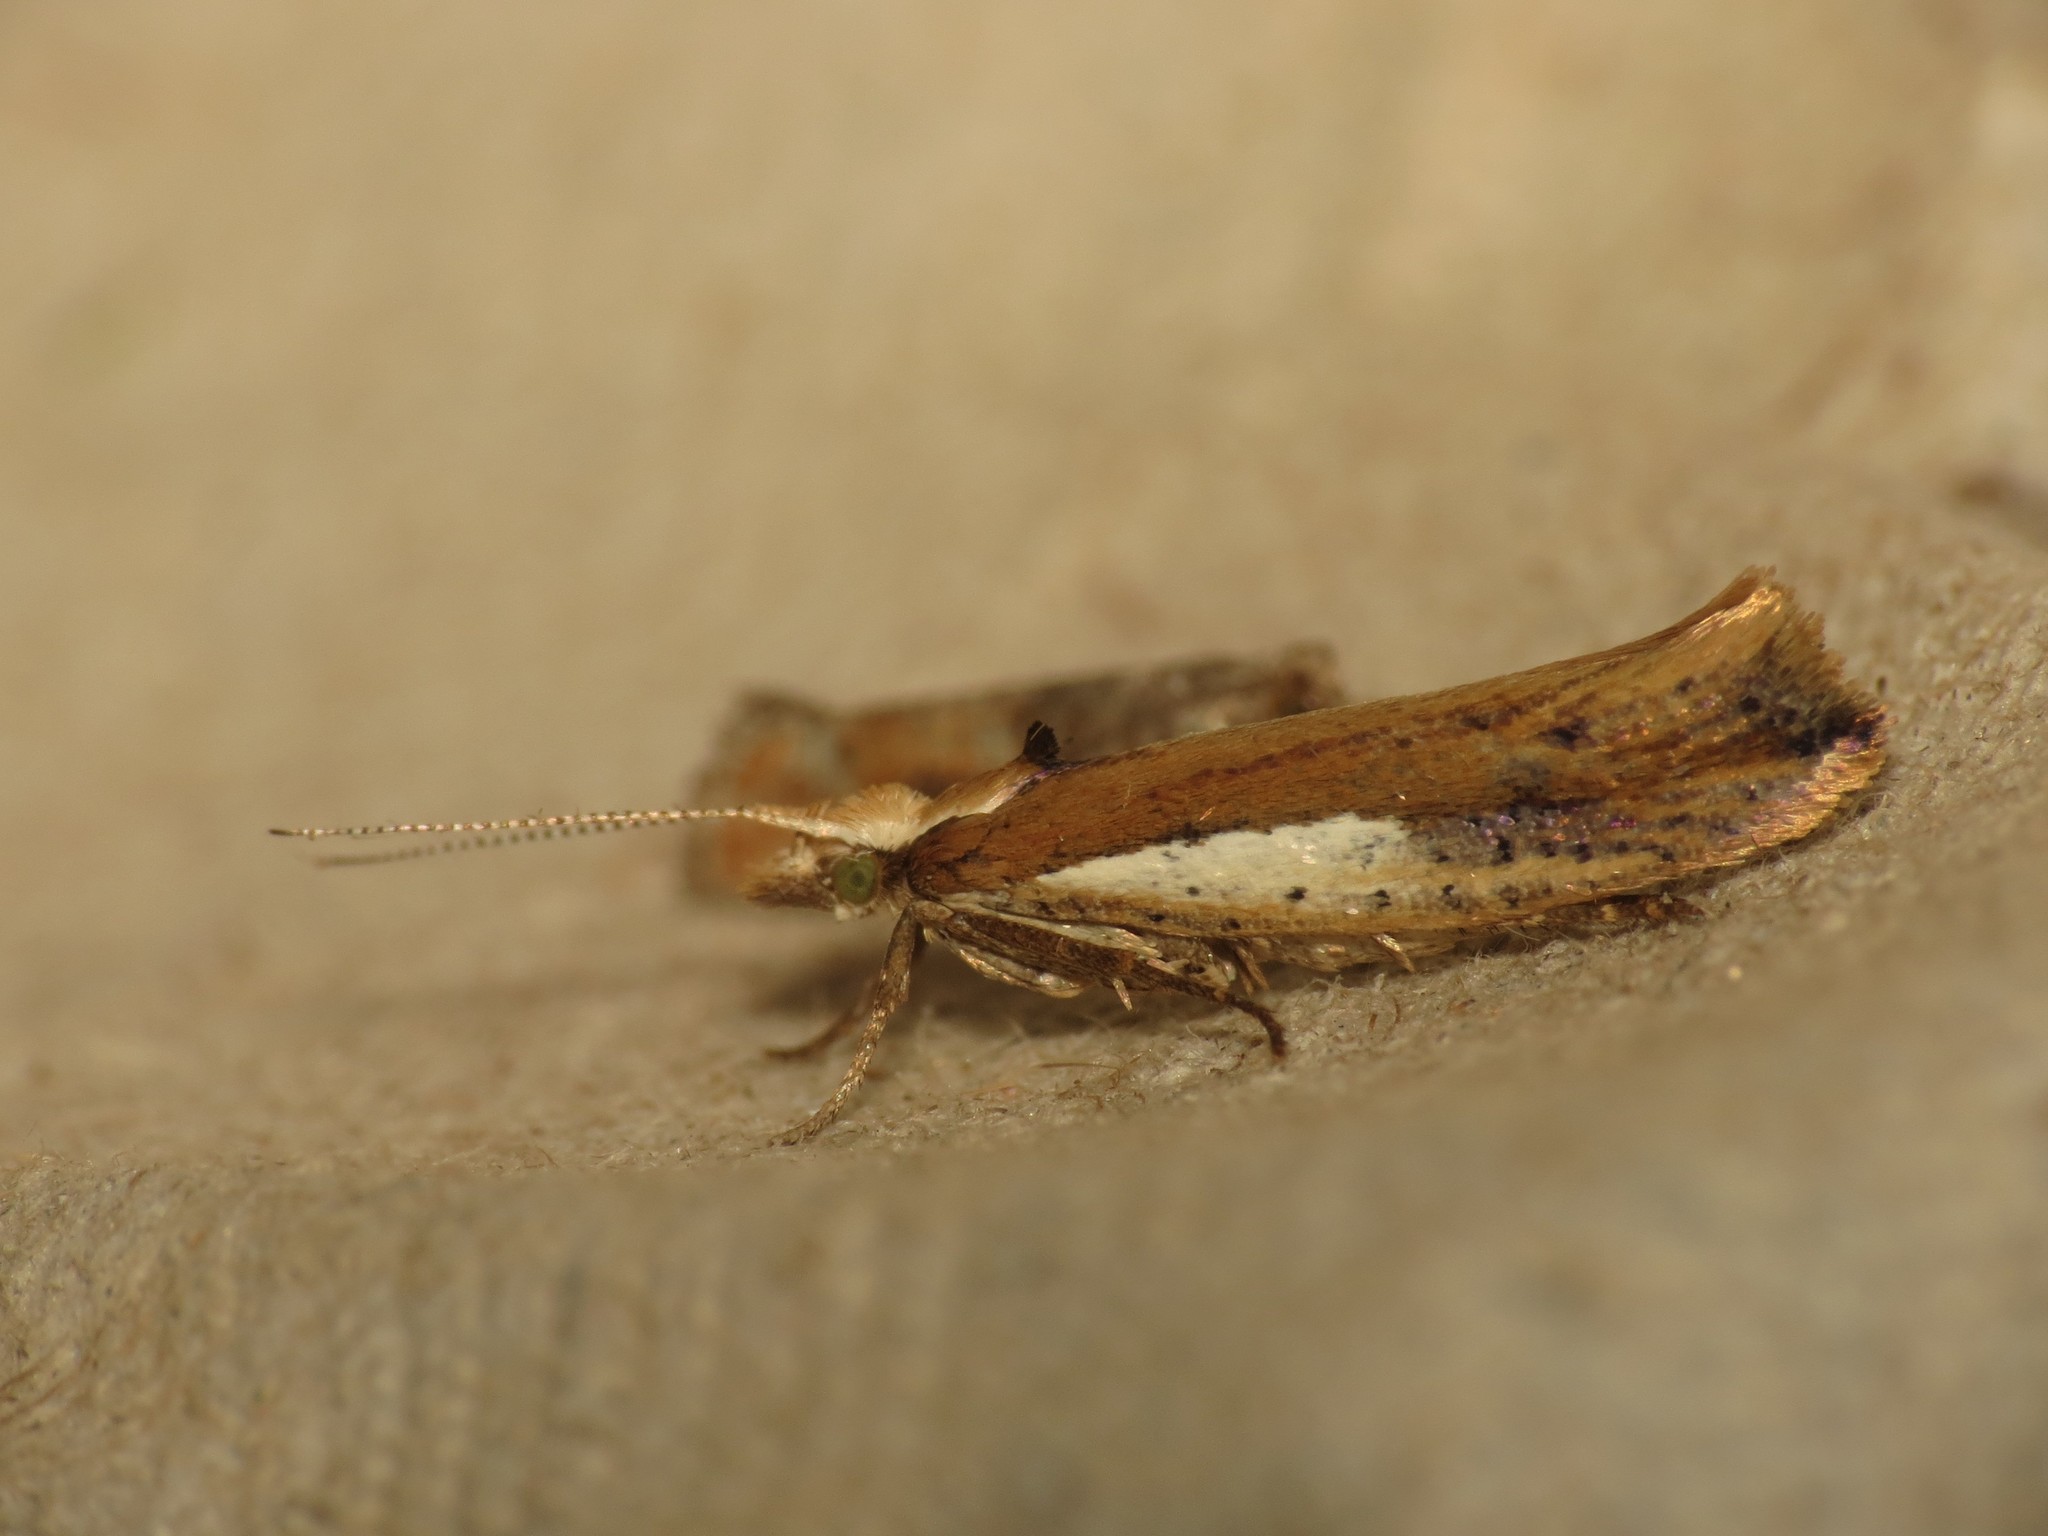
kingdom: Animalia
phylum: Arthropoda
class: Insecta
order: Lepidoptera
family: Ypsolophidae
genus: Ypsolopha
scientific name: Ypsolopha parenthesella
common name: White-shouldered smudge
